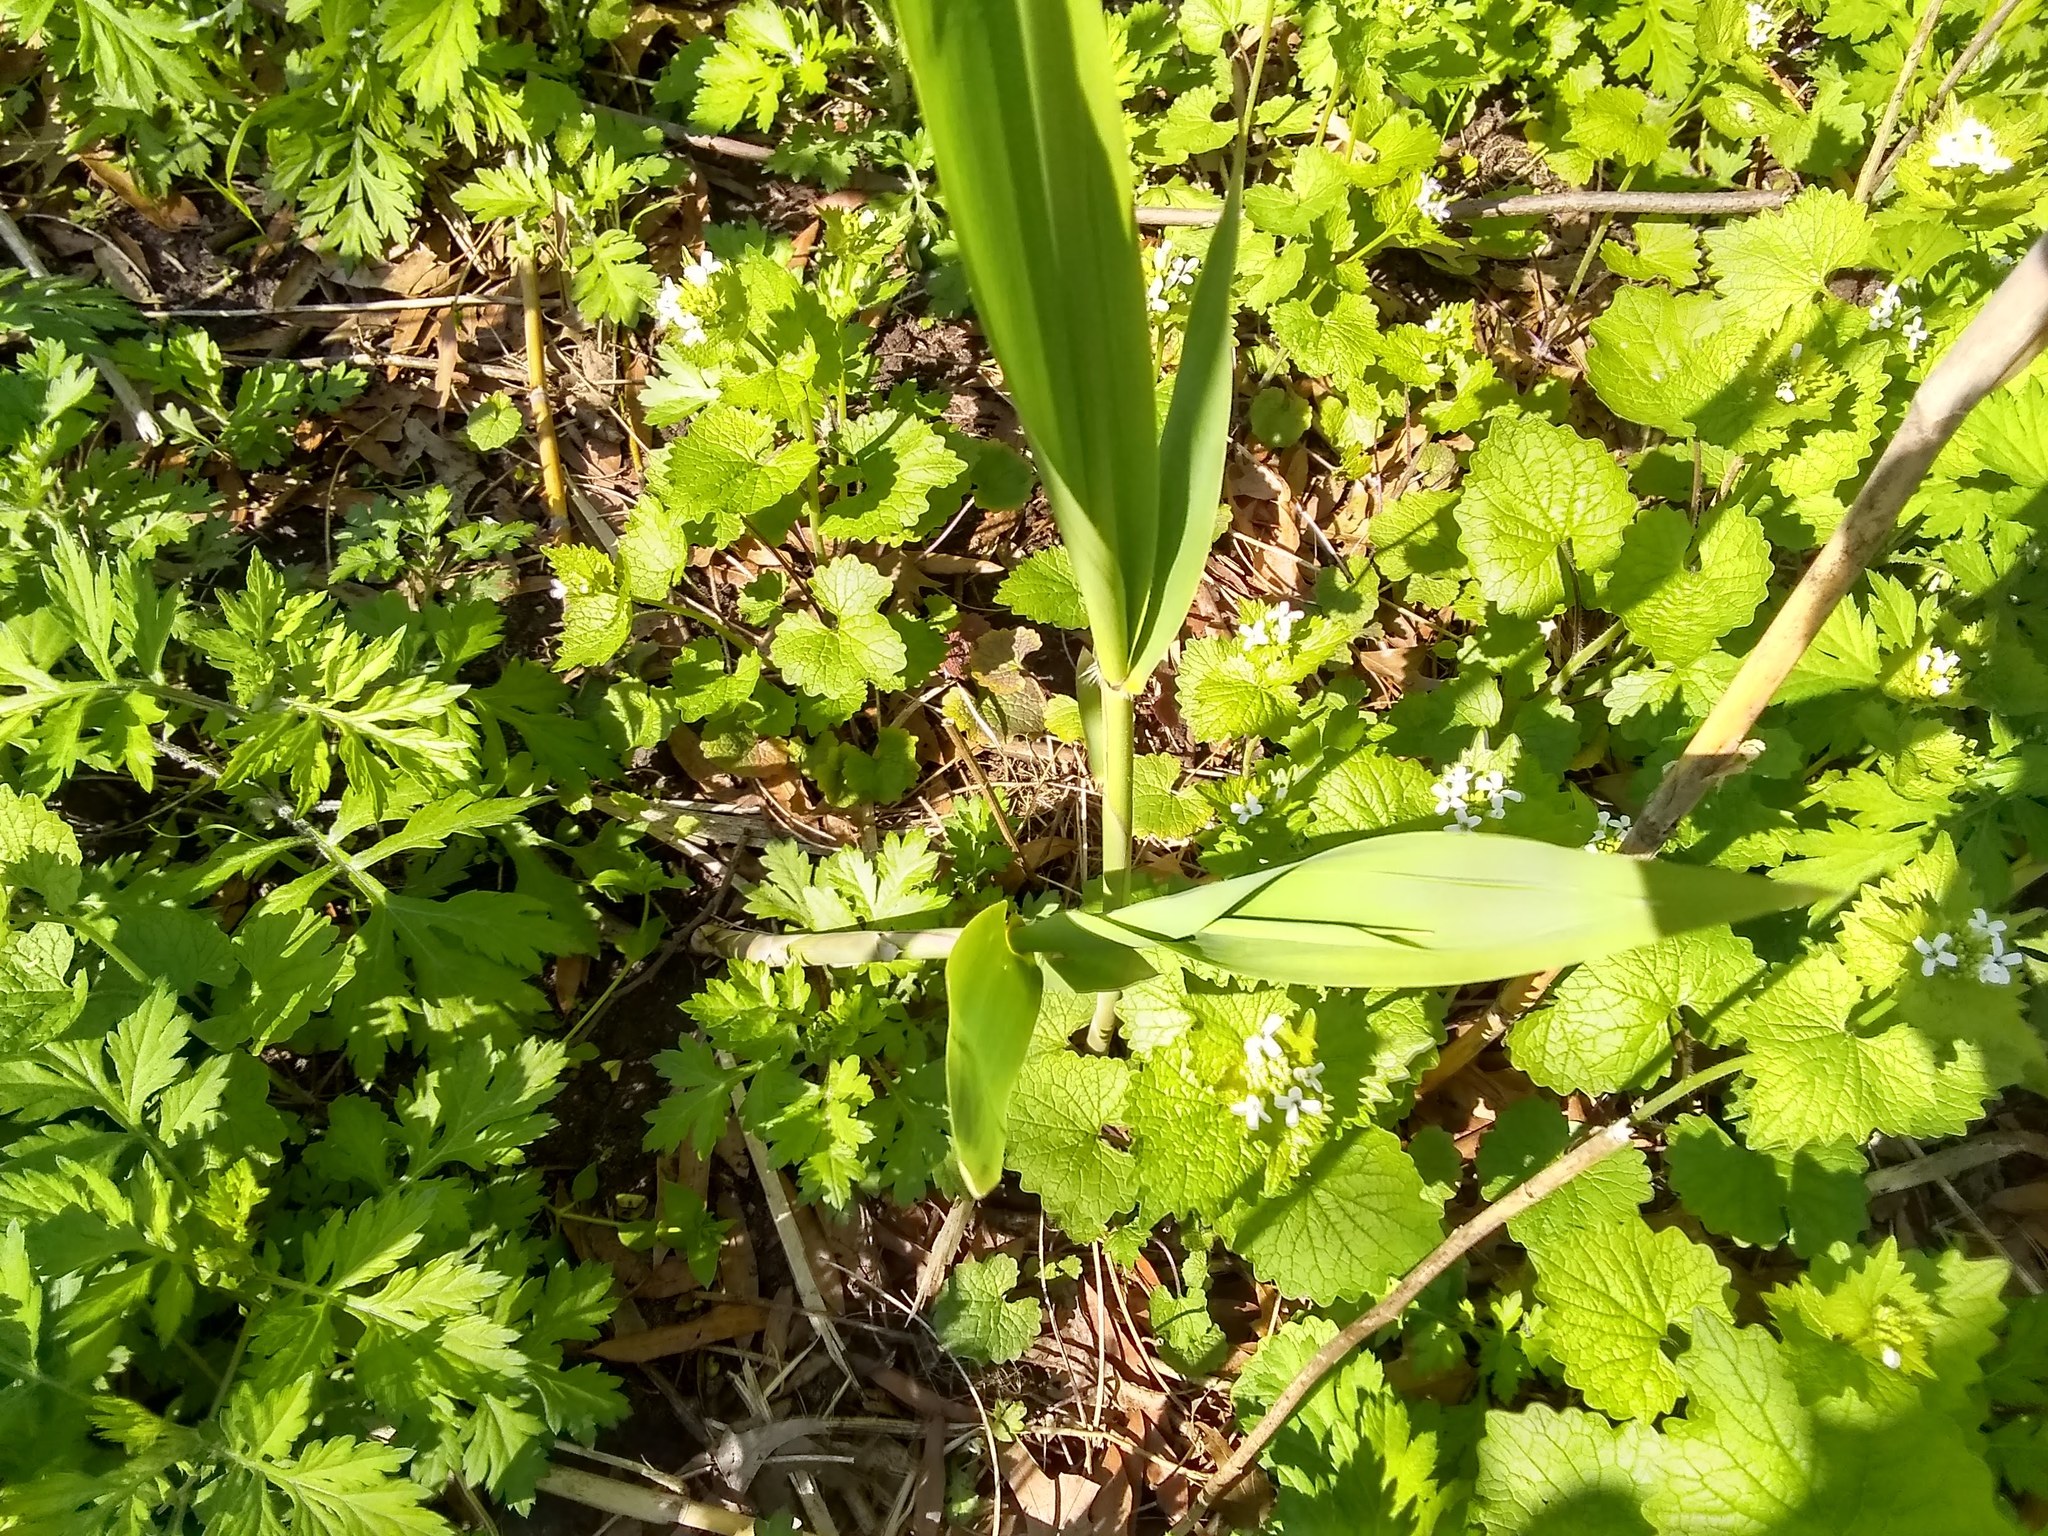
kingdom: Plantae
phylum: Tracheophyta
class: Liliopsida
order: Poales
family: Poaceae
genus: Phragmites
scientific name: Phragmites australis
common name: Common reed
